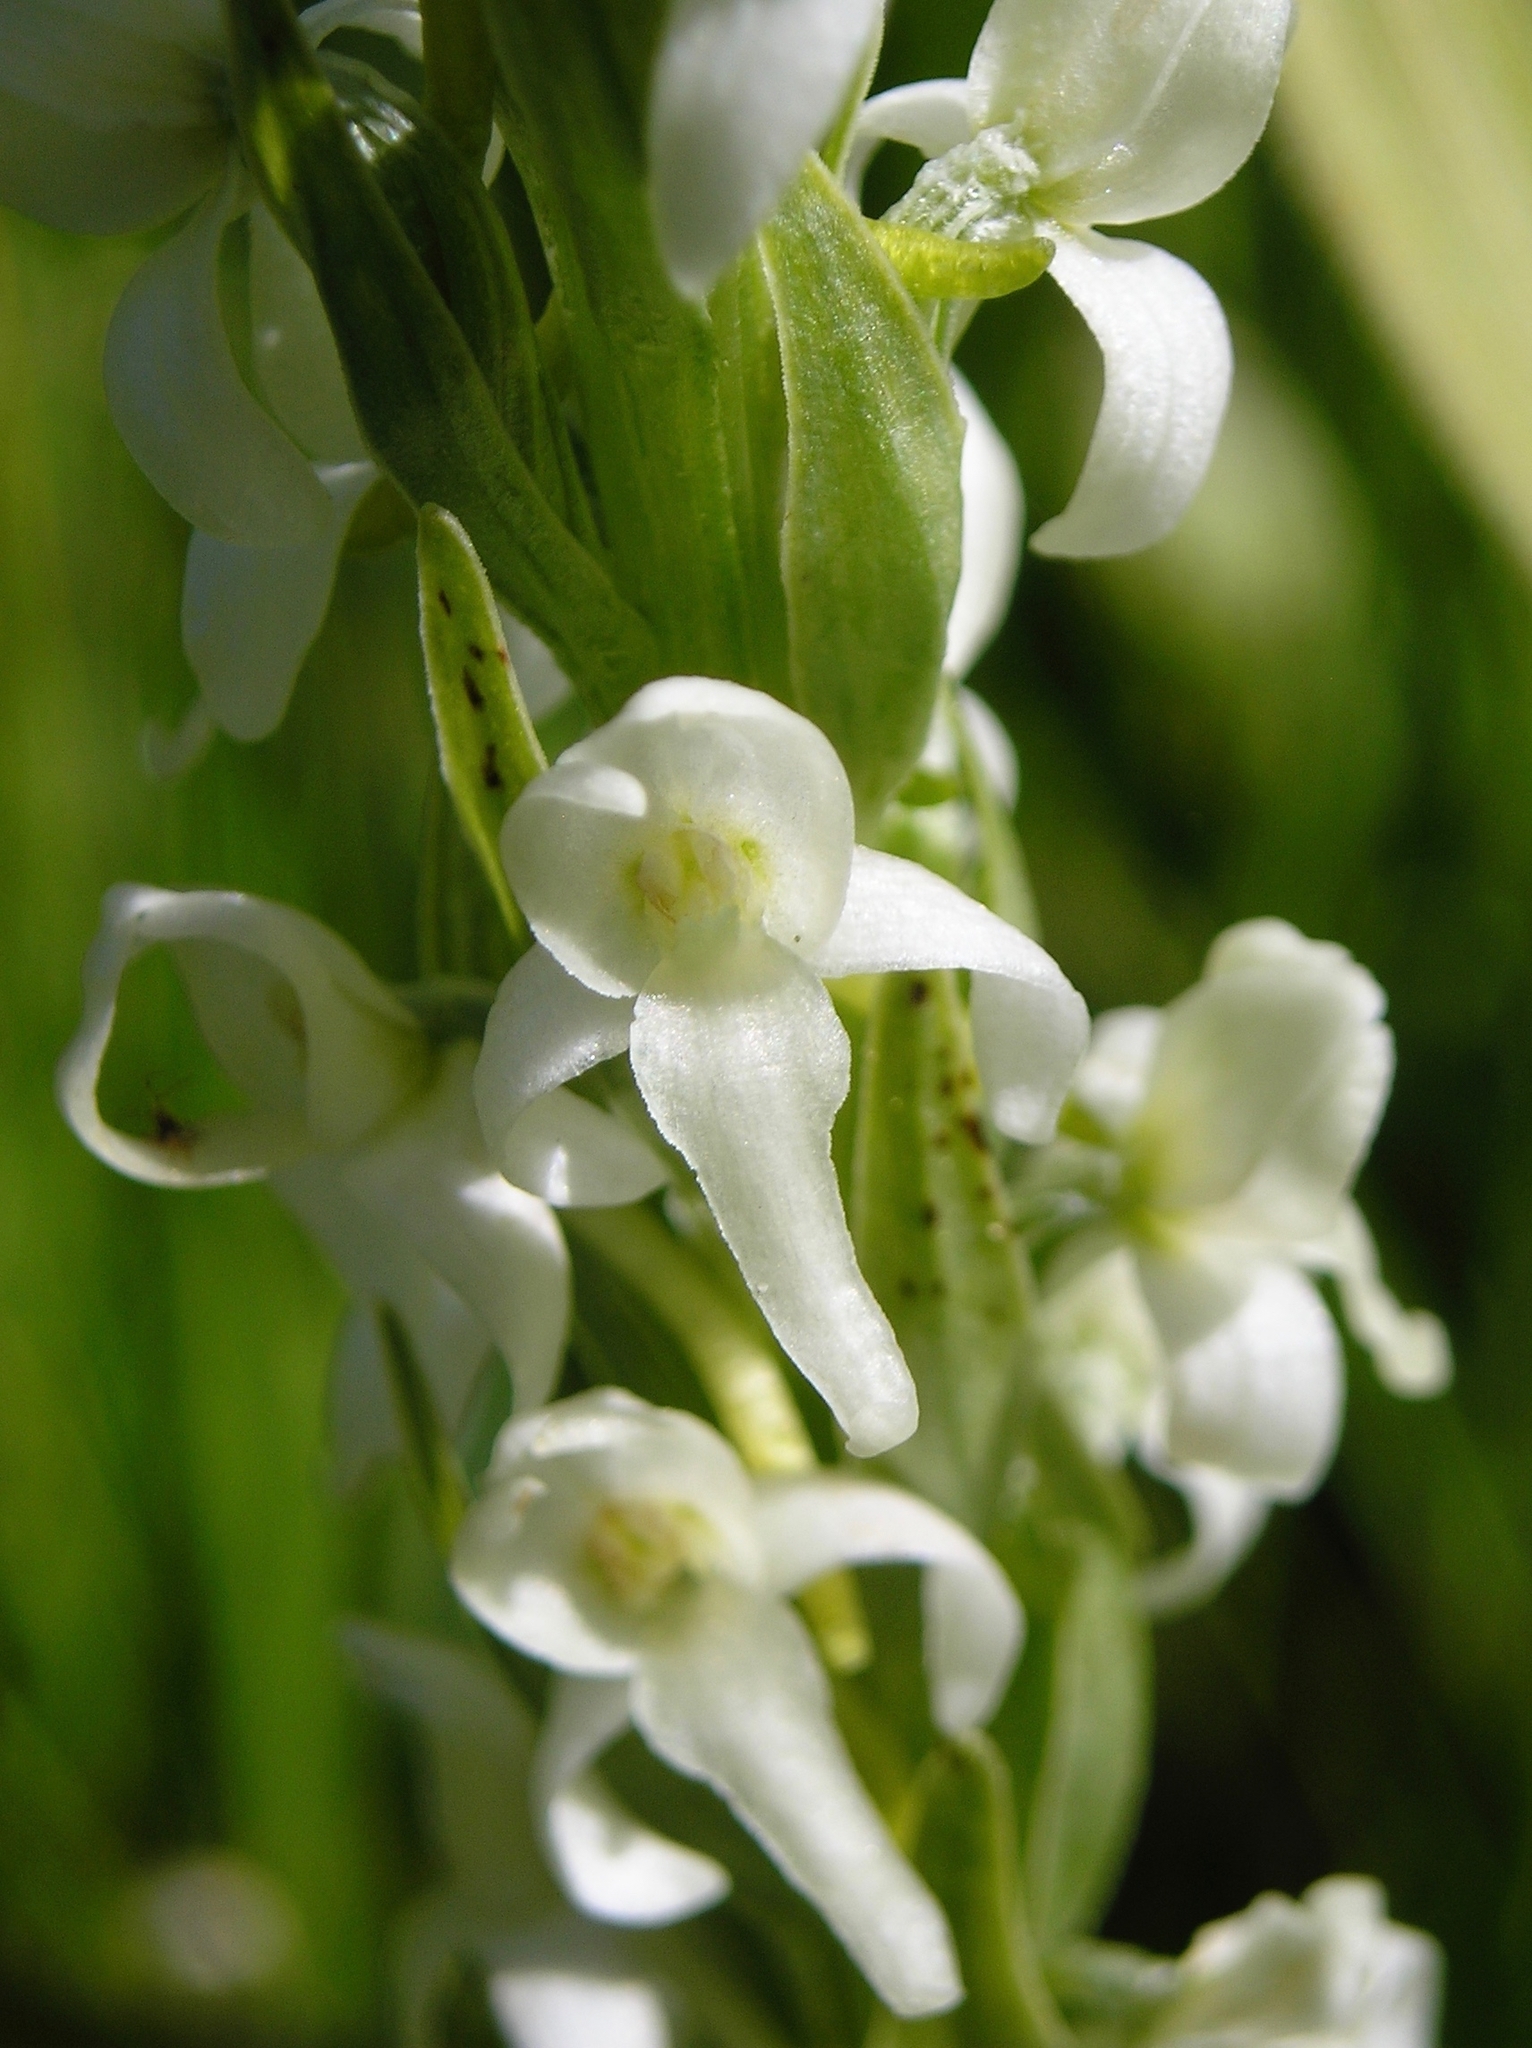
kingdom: Plantae
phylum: Tracheophyta
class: Liliopsida
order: Asparagales
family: Orchidaceae
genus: Platanthera
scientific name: Platanthera dilatata
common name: Bog candles
